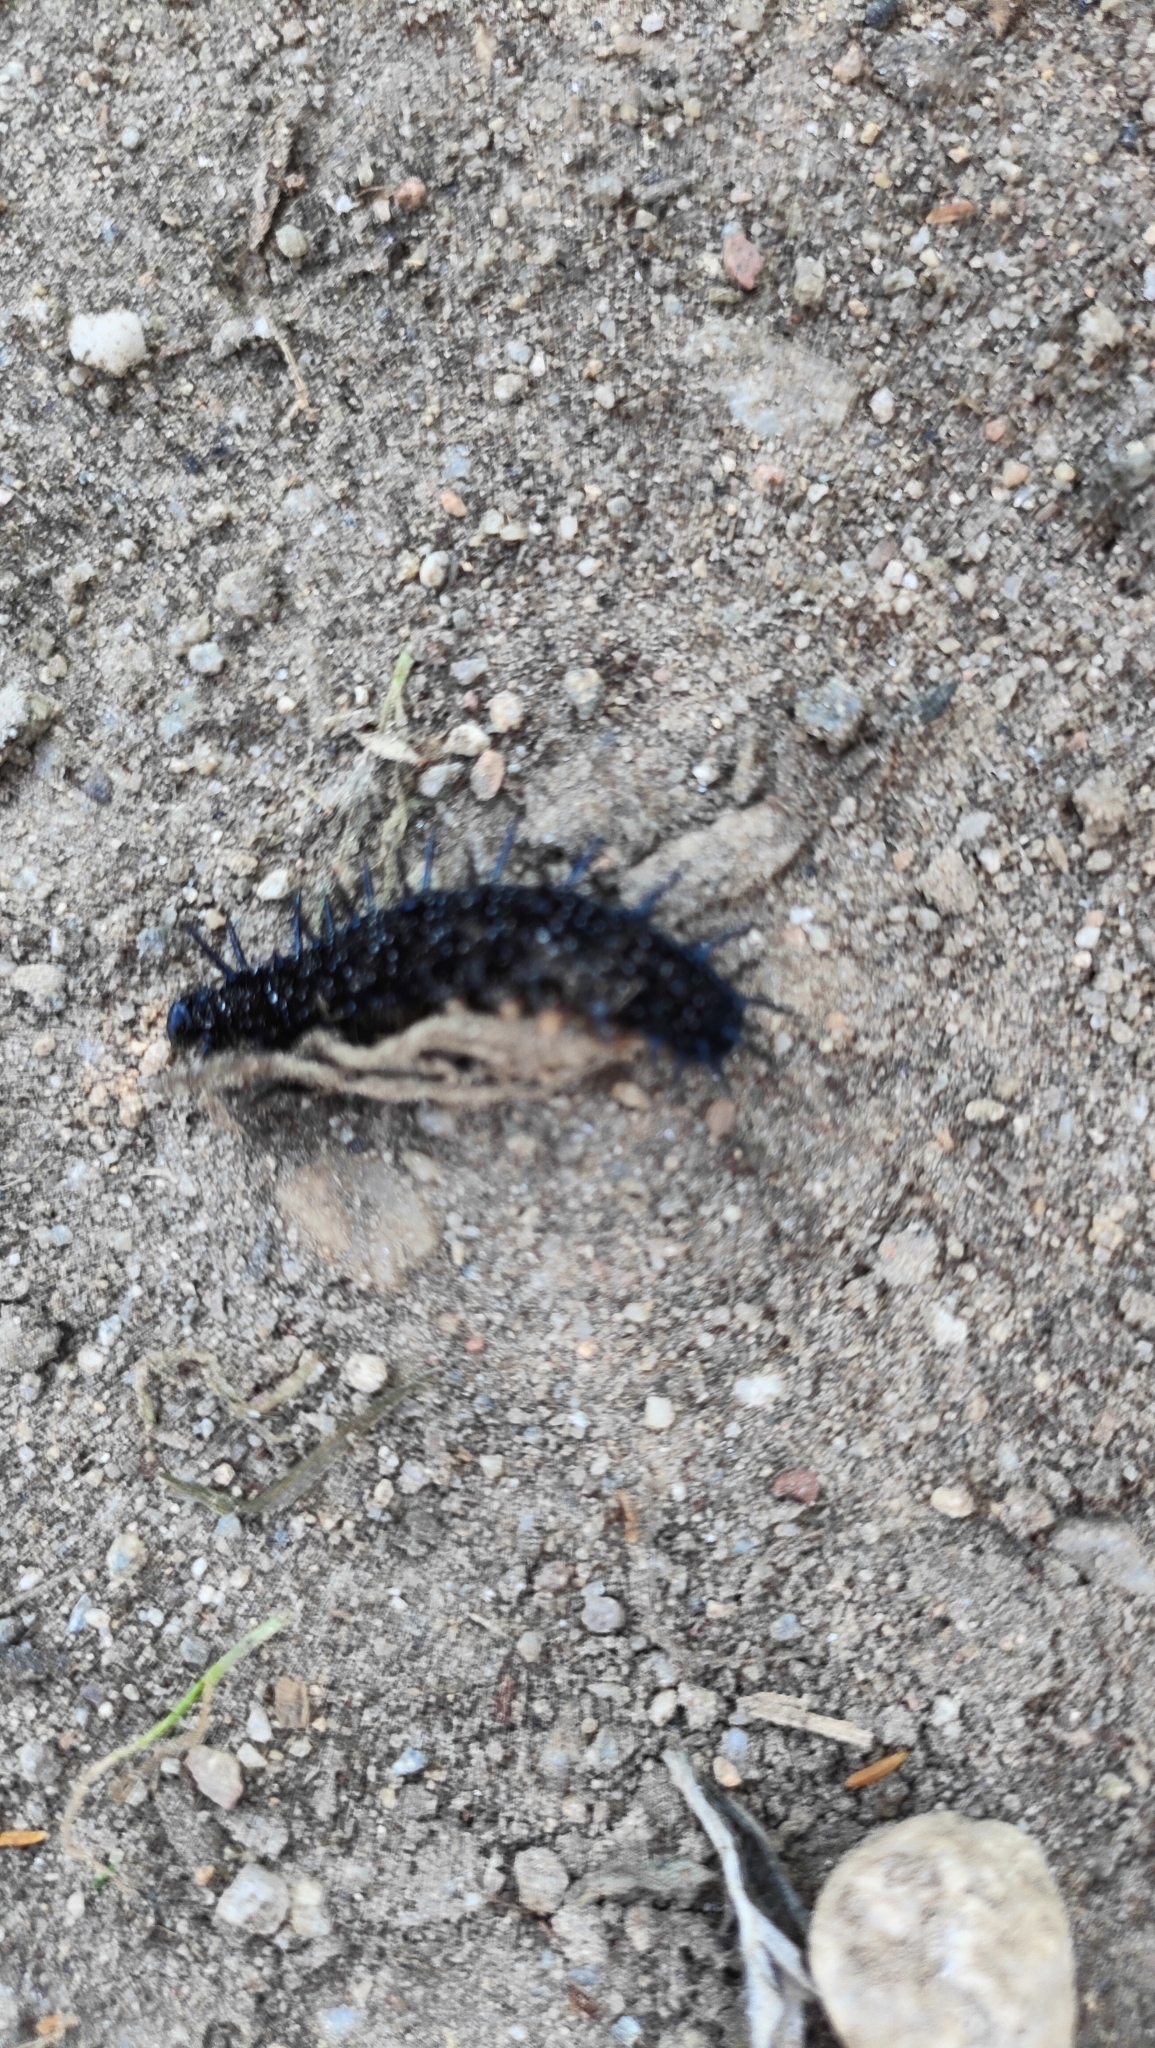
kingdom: Animalia
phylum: Arthropoda
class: Insecta
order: Lepidoptera
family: Nymphalidae
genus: Aglais
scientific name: Aglais io
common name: Peacock
